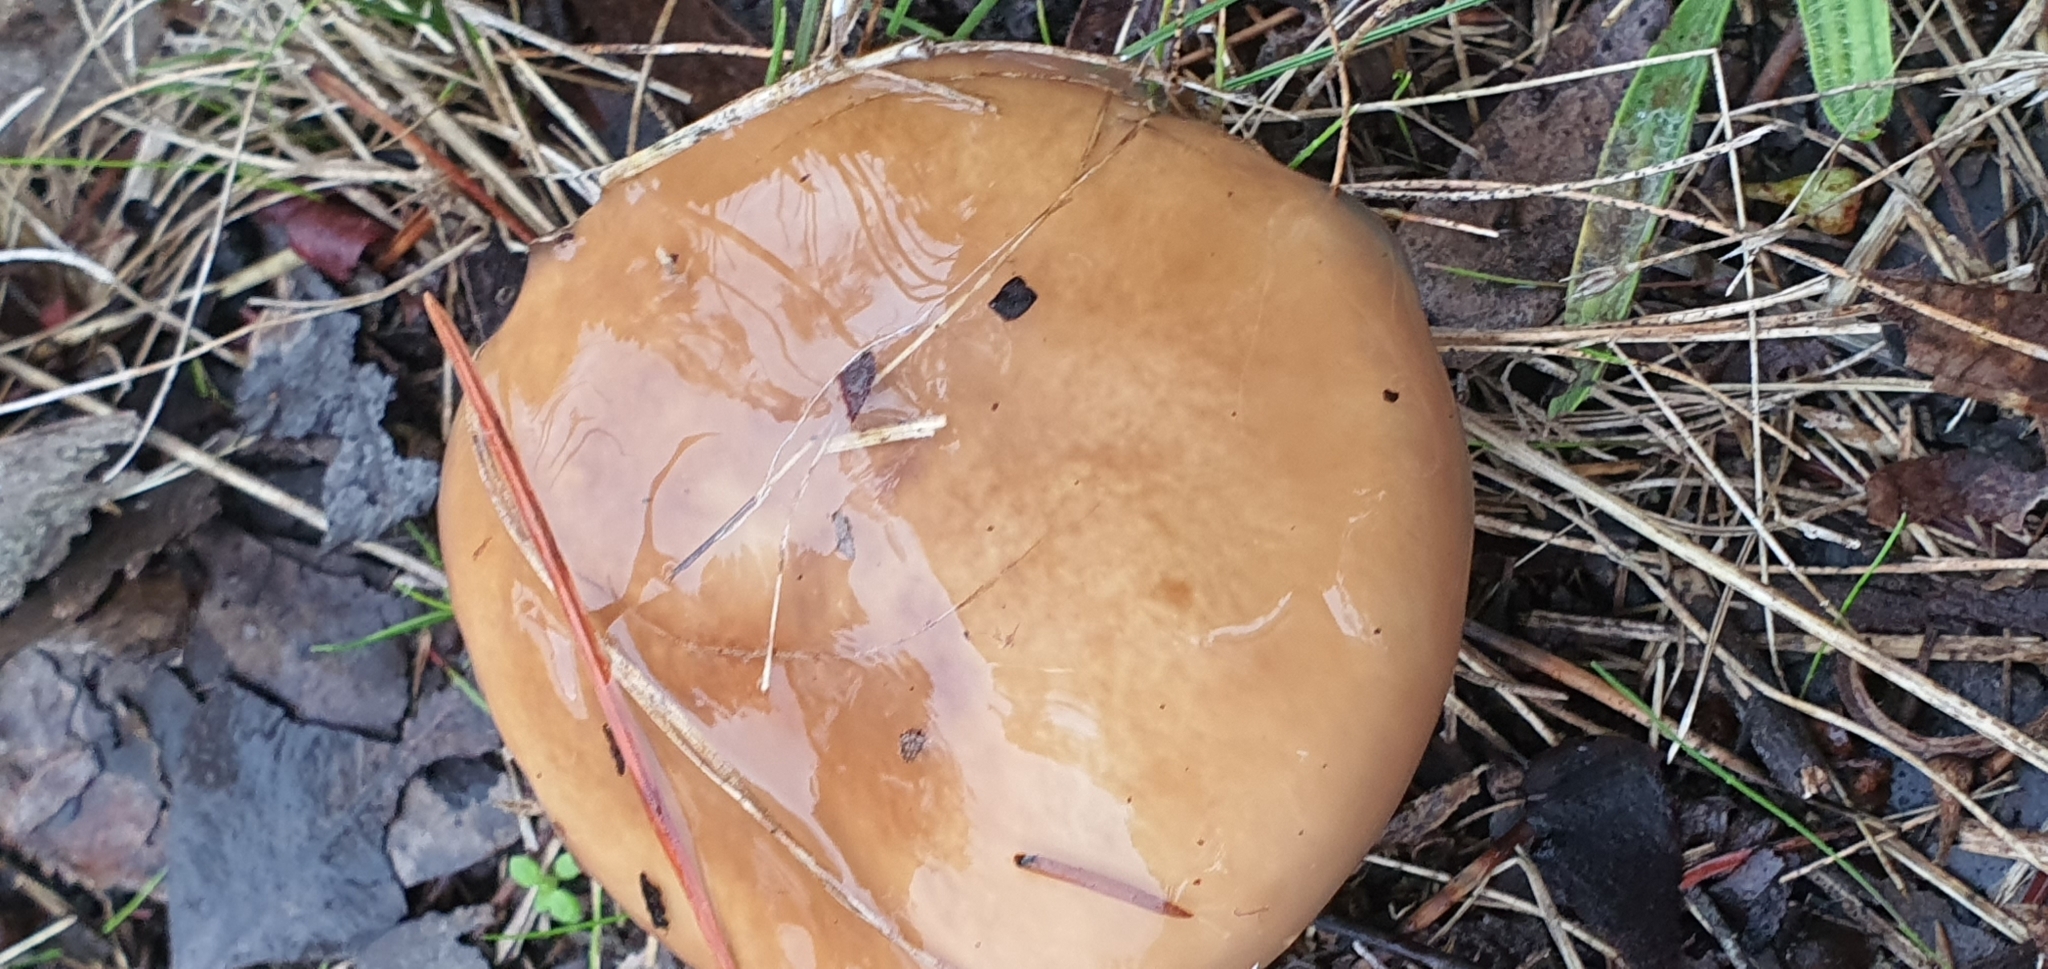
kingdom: Fungi
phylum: Basidiomycota
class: Agaricomycetes
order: Boletales
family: Suillaceae
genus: Suillus
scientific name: Suillus luteus
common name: Slippery jack
